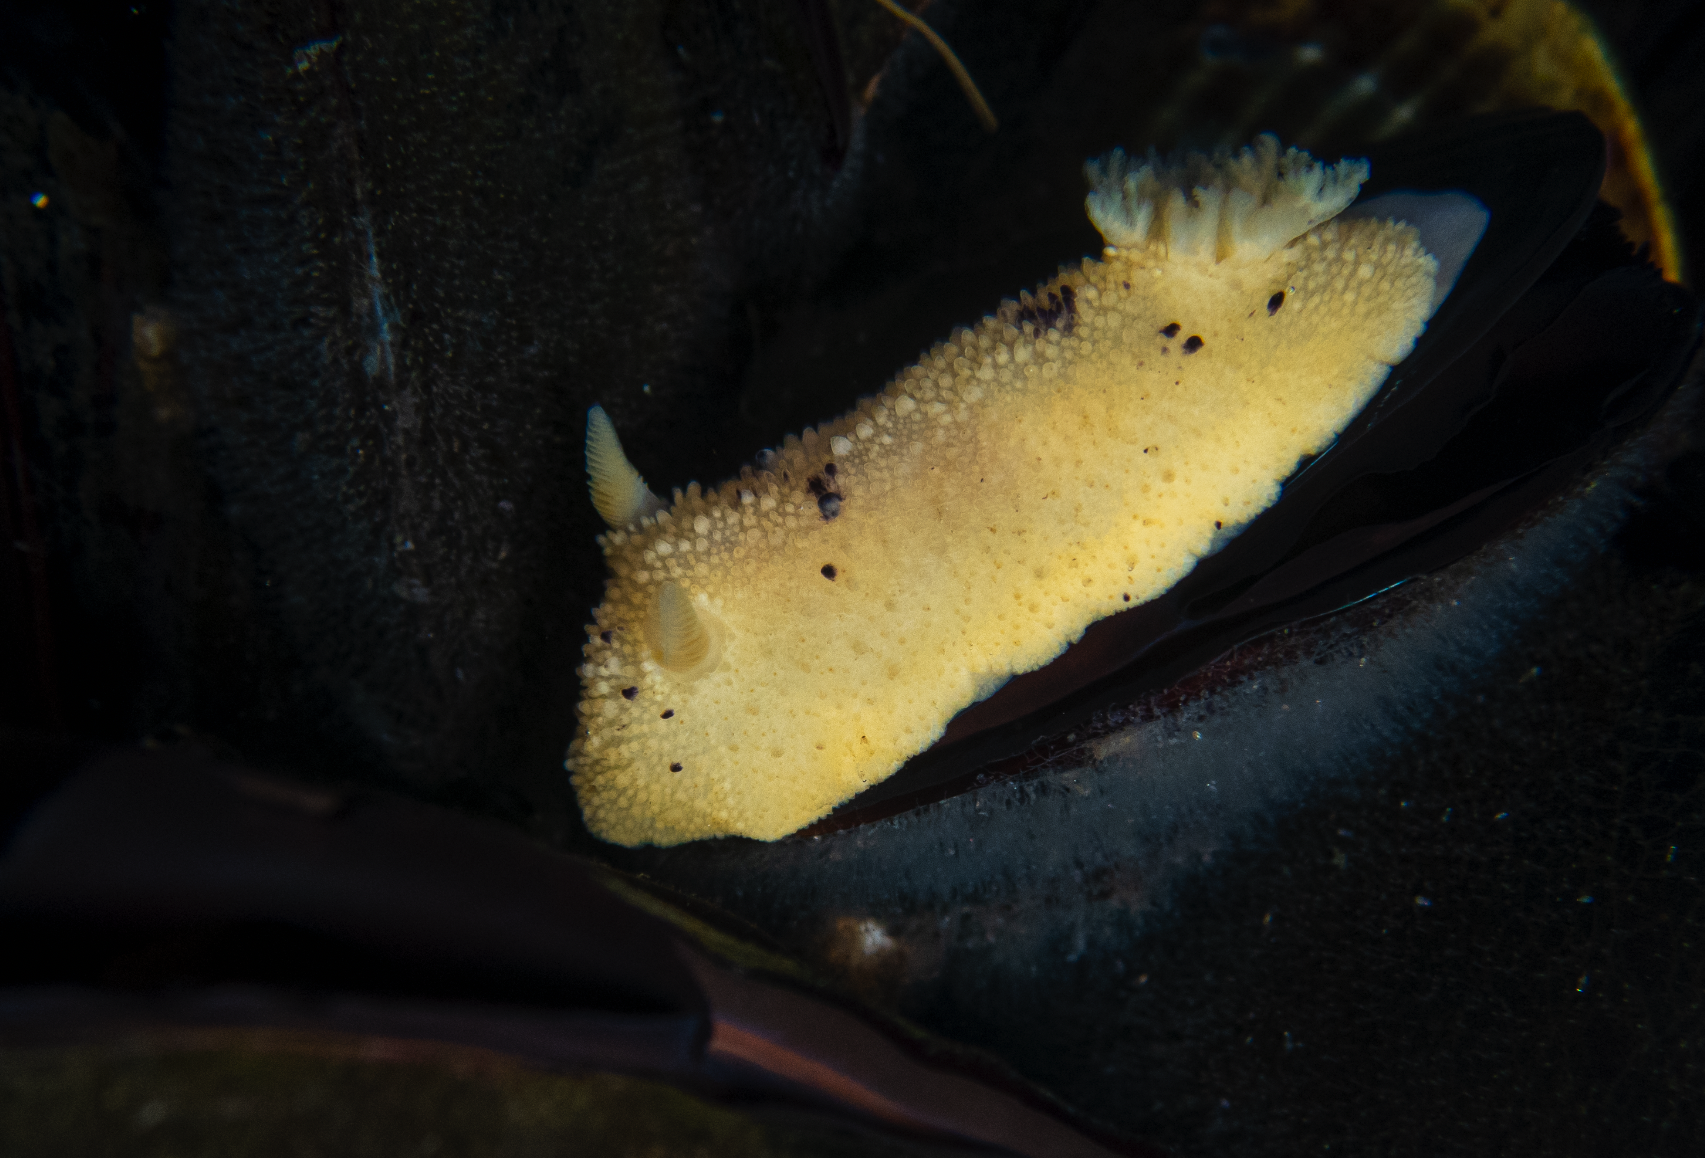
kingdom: Animalia
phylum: Mollusca
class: Gastropoda
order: Nudibranchia
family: Dorididae
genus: Doris
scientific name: Doris montereyensis
